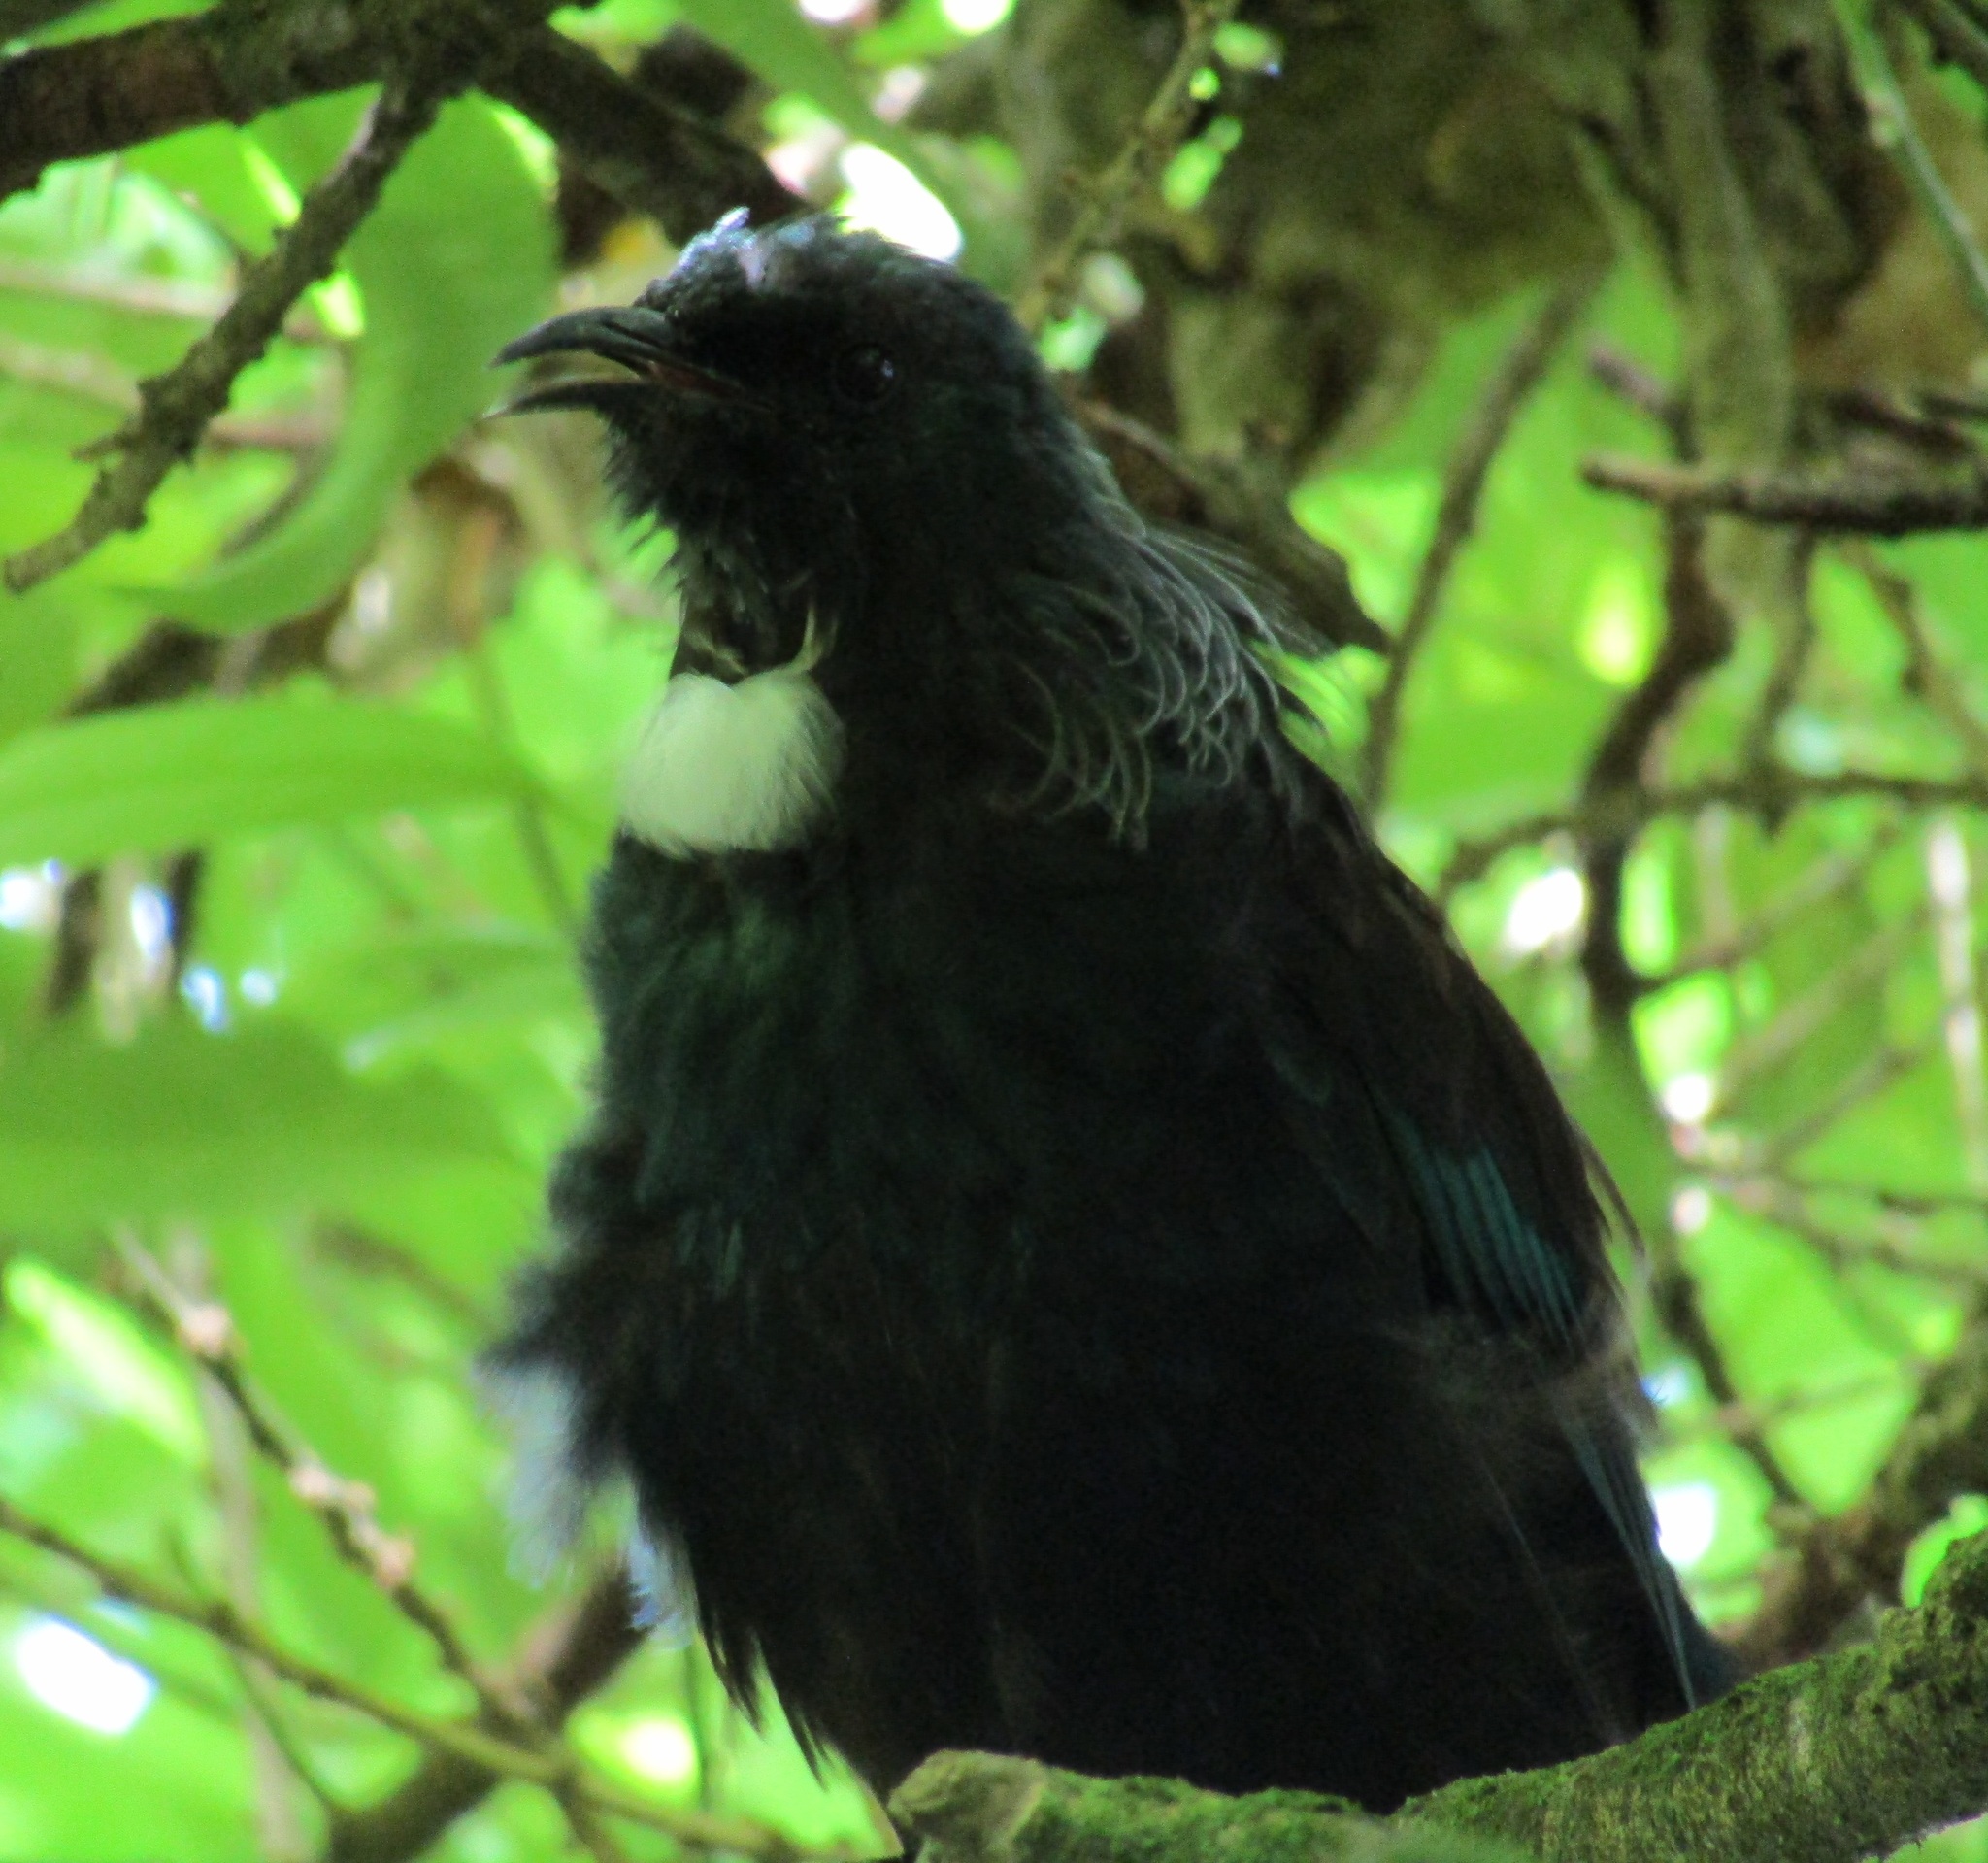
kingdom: Animalia
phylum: Chordata
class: Aves
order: Passeriformes
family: Meliphagidae
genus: Prosthemadera
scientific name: Prosthemadera novaeseelandiae
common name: Tui
